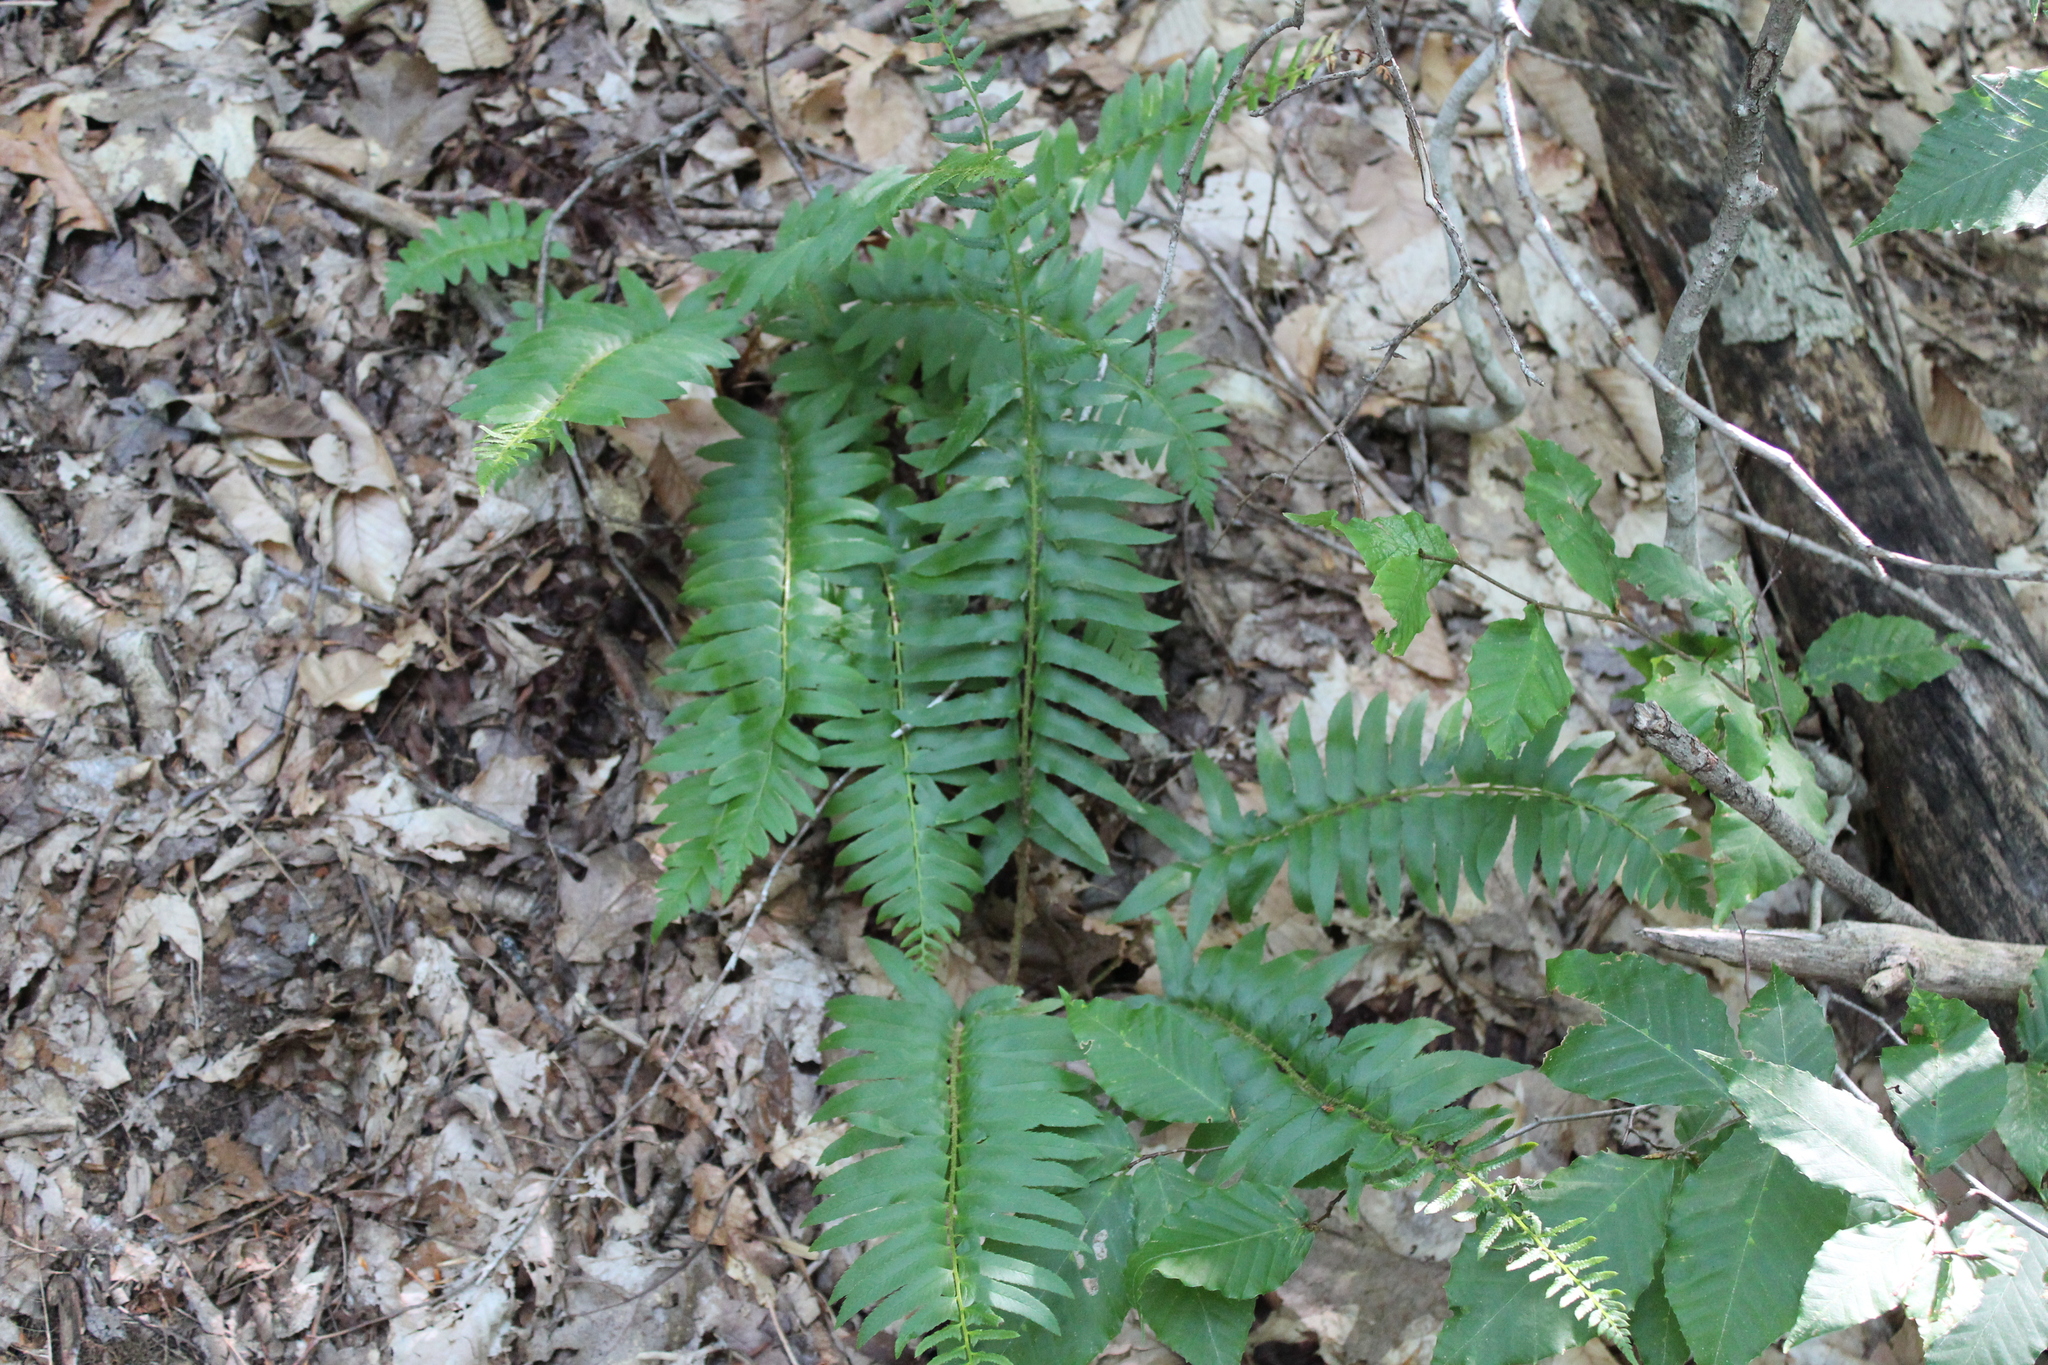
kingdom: Plantae
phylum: Tracheophyta
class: Polypodiopsida
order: Polypodiales
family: Dryopteridaceae
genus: Polystichum
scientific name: Polystichum acrostichoides
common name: Christmas fern
